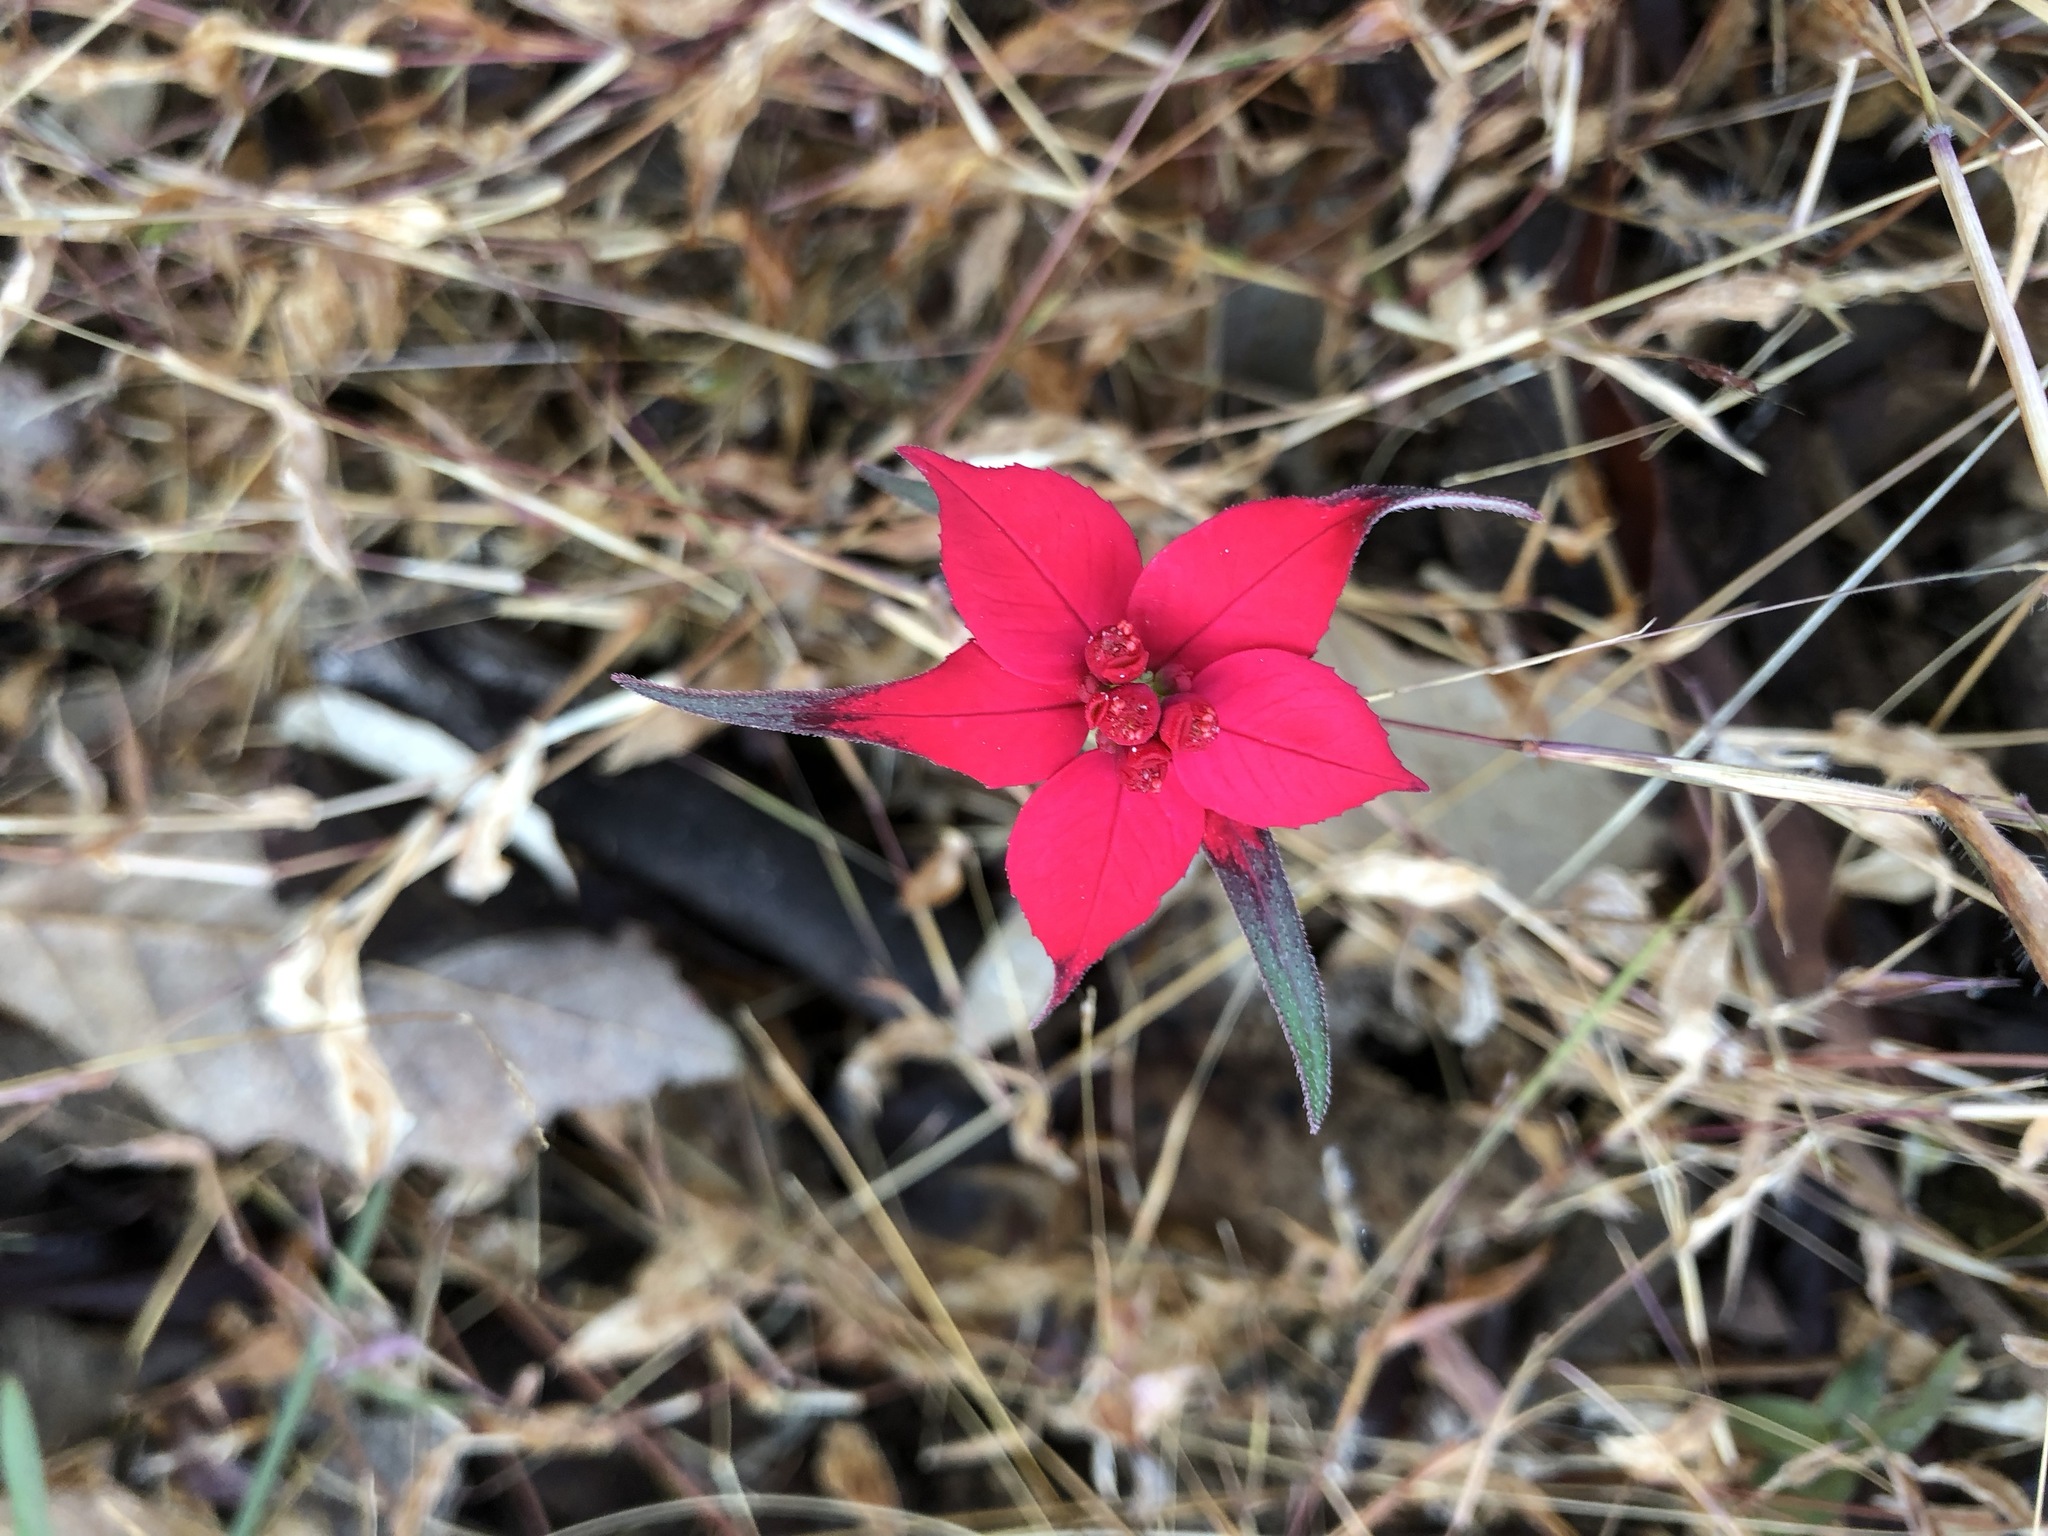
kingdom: Plantae
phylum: Tracheophyta
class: Magnoliopsida
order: Malpighiales
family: Euphorbiaceae
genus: Euphorbia
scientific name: Euphorbia strigosa
